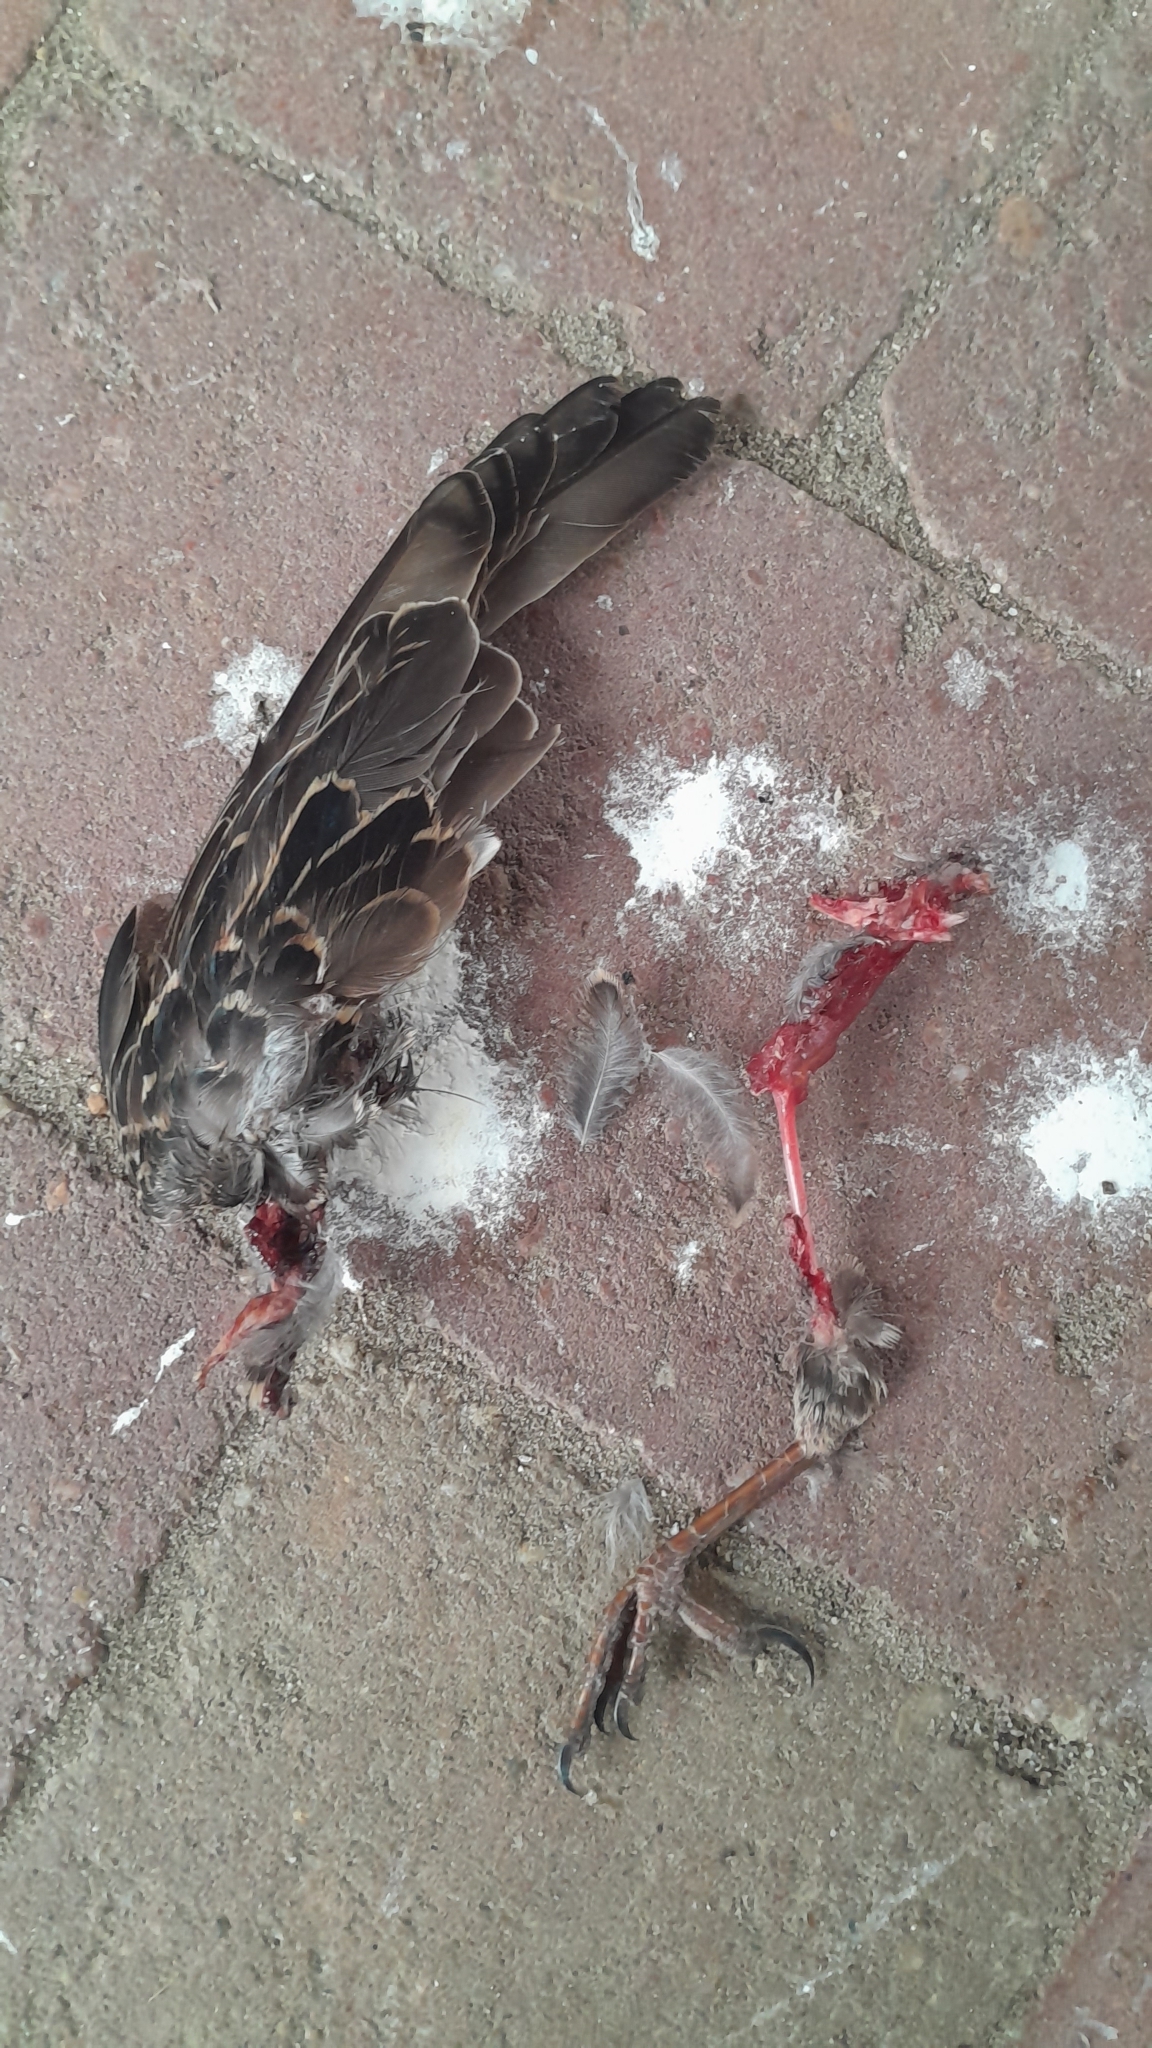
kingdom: Animalia
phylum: Chordata
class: Aves
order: Passeriformes
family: Sturnidae
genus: Sturnus
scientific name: Sturnus vulgaris
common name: Common starling
